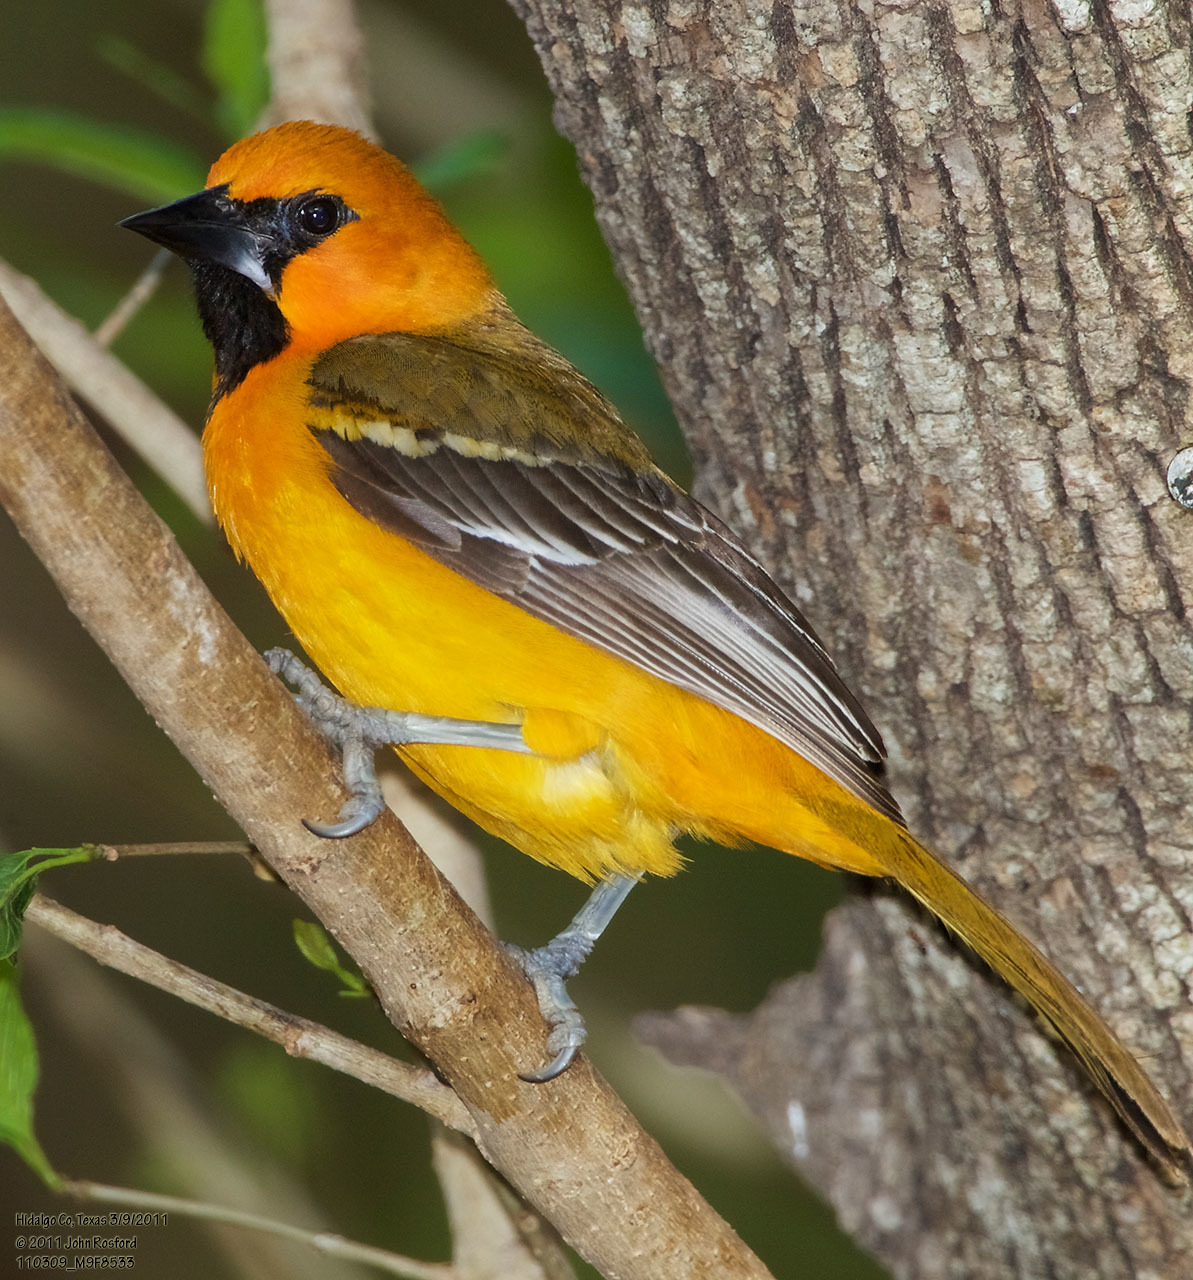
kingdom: Animalia
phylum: Chordata
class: Aves
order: Passeriformes
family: Icteridae
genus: Icterus
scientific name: Icterus gularis
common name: Altamira oriole
